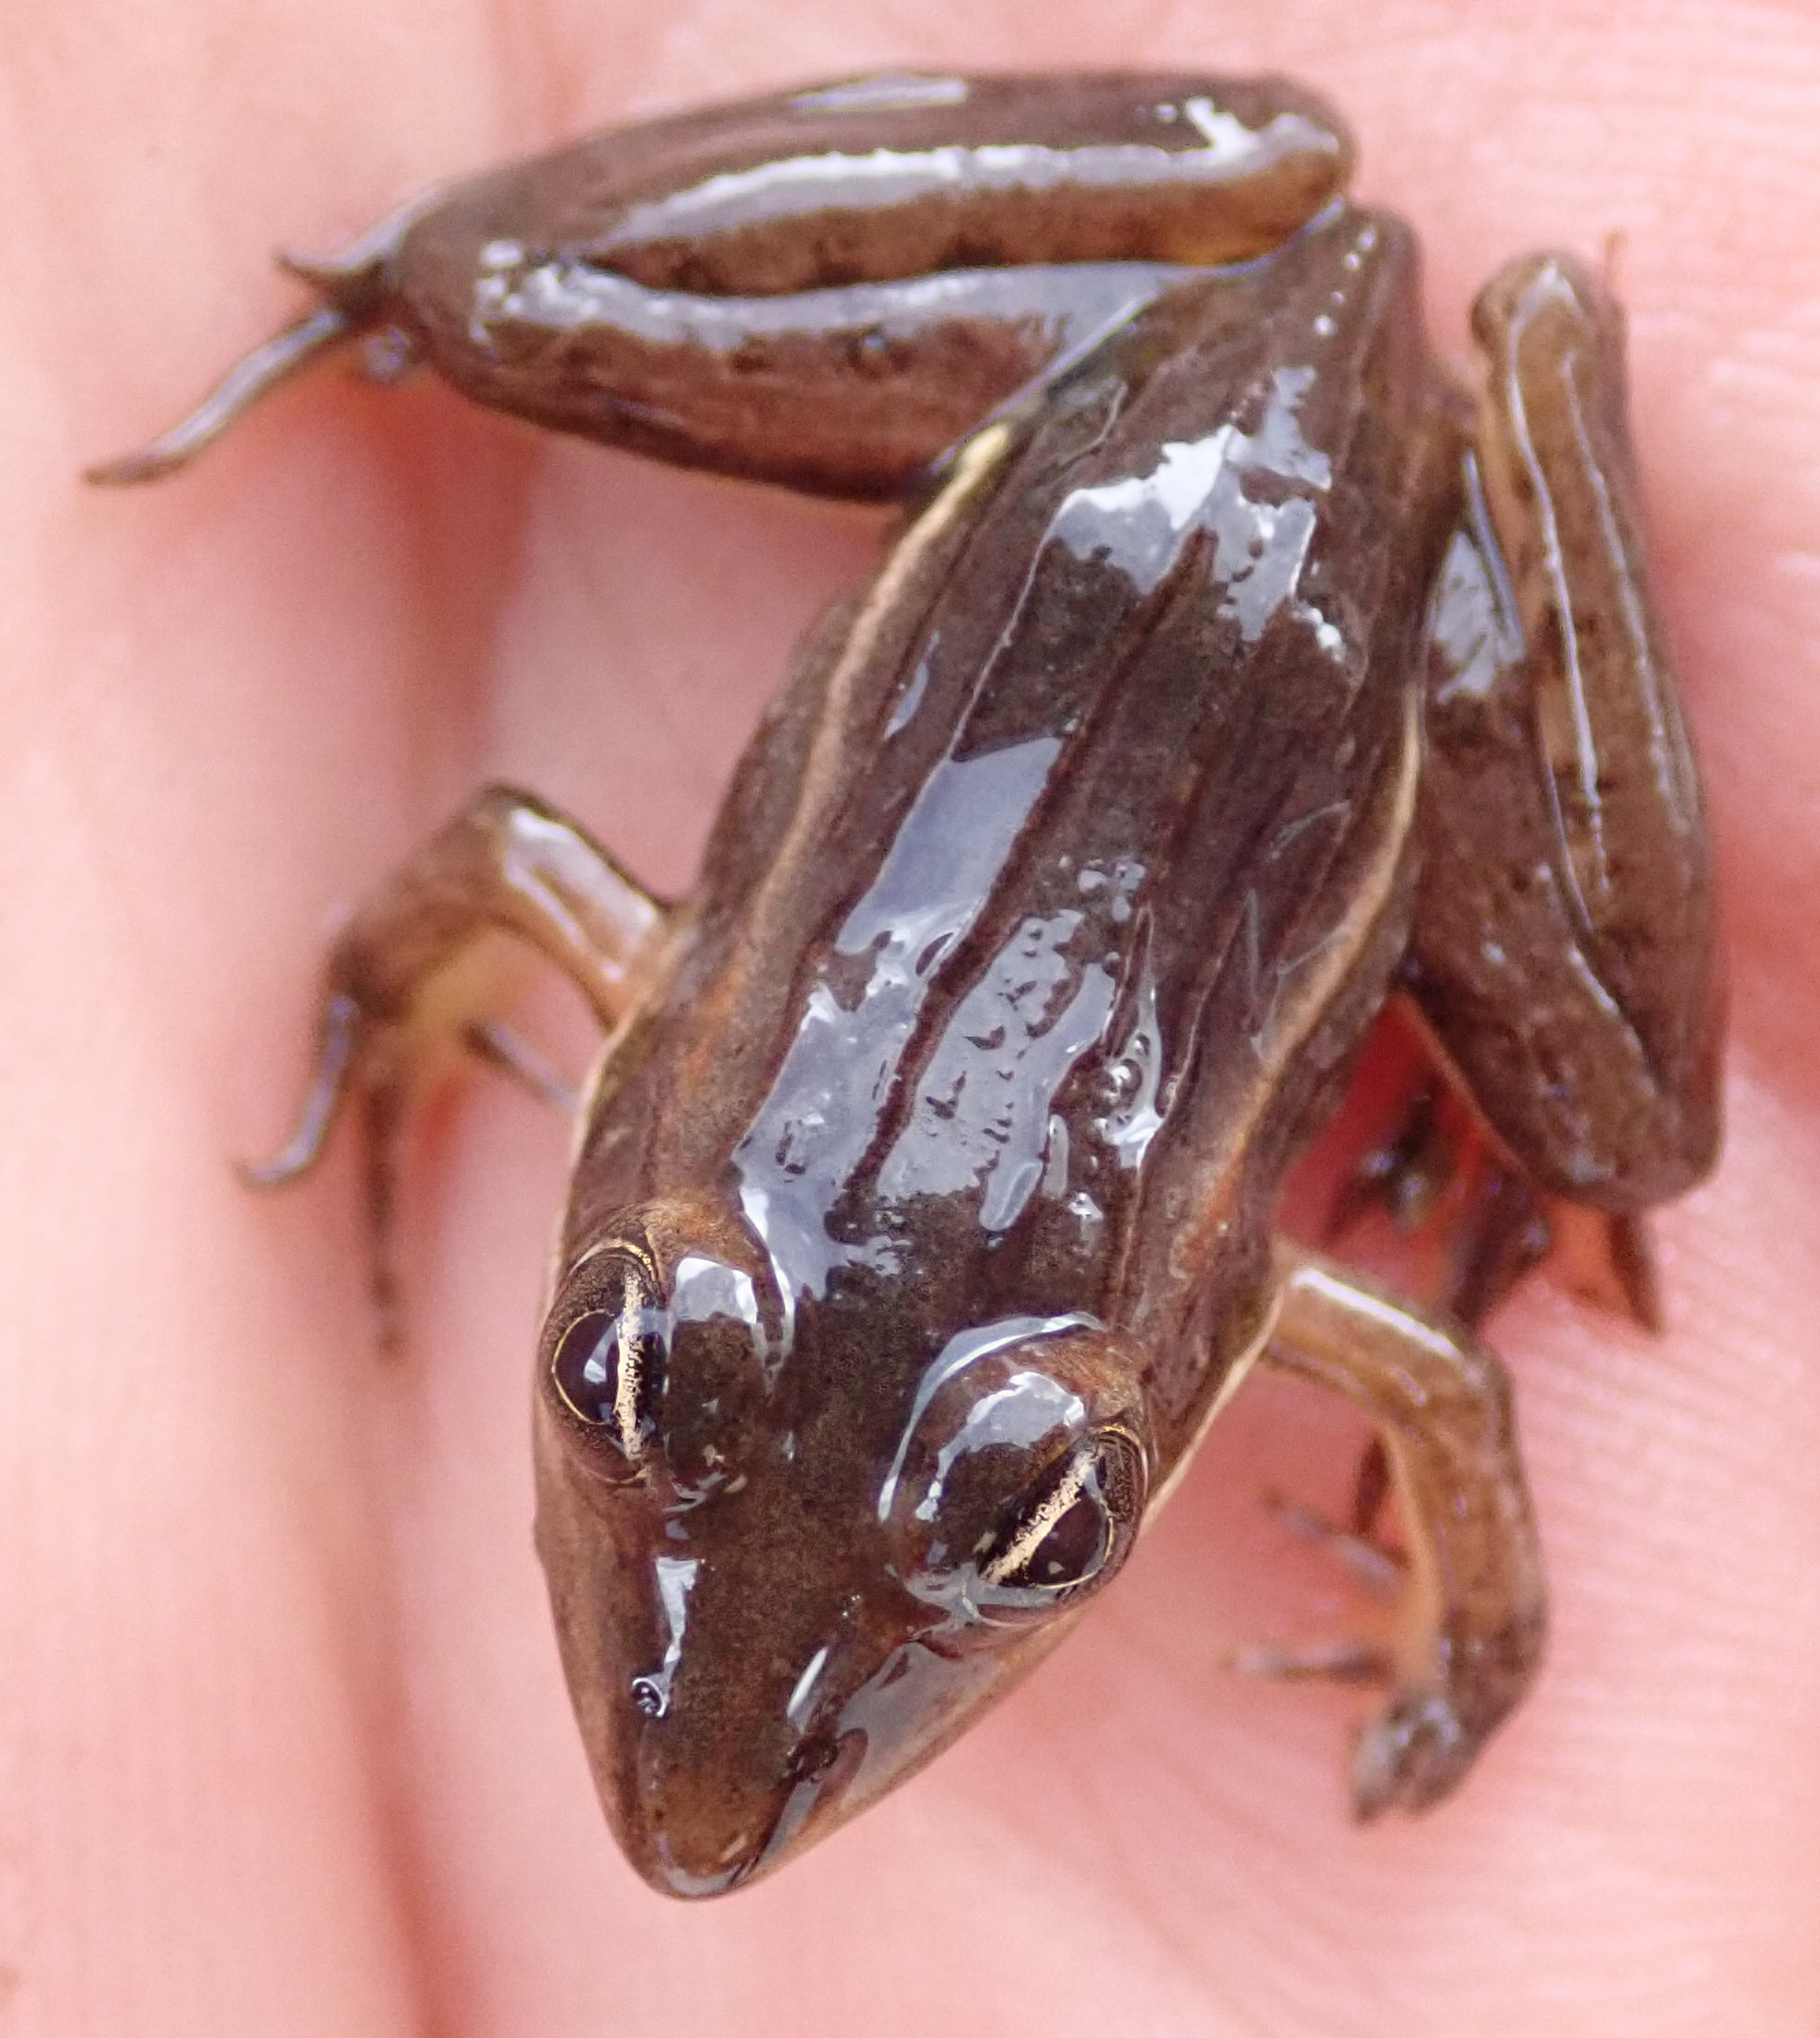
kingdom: Animalia
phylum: Chordata
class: Amphibia
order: Anura
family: Ptychadenidae
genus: Ptychadena
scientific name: Ptychadena subpunctata
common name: Bocage's grassland frog
